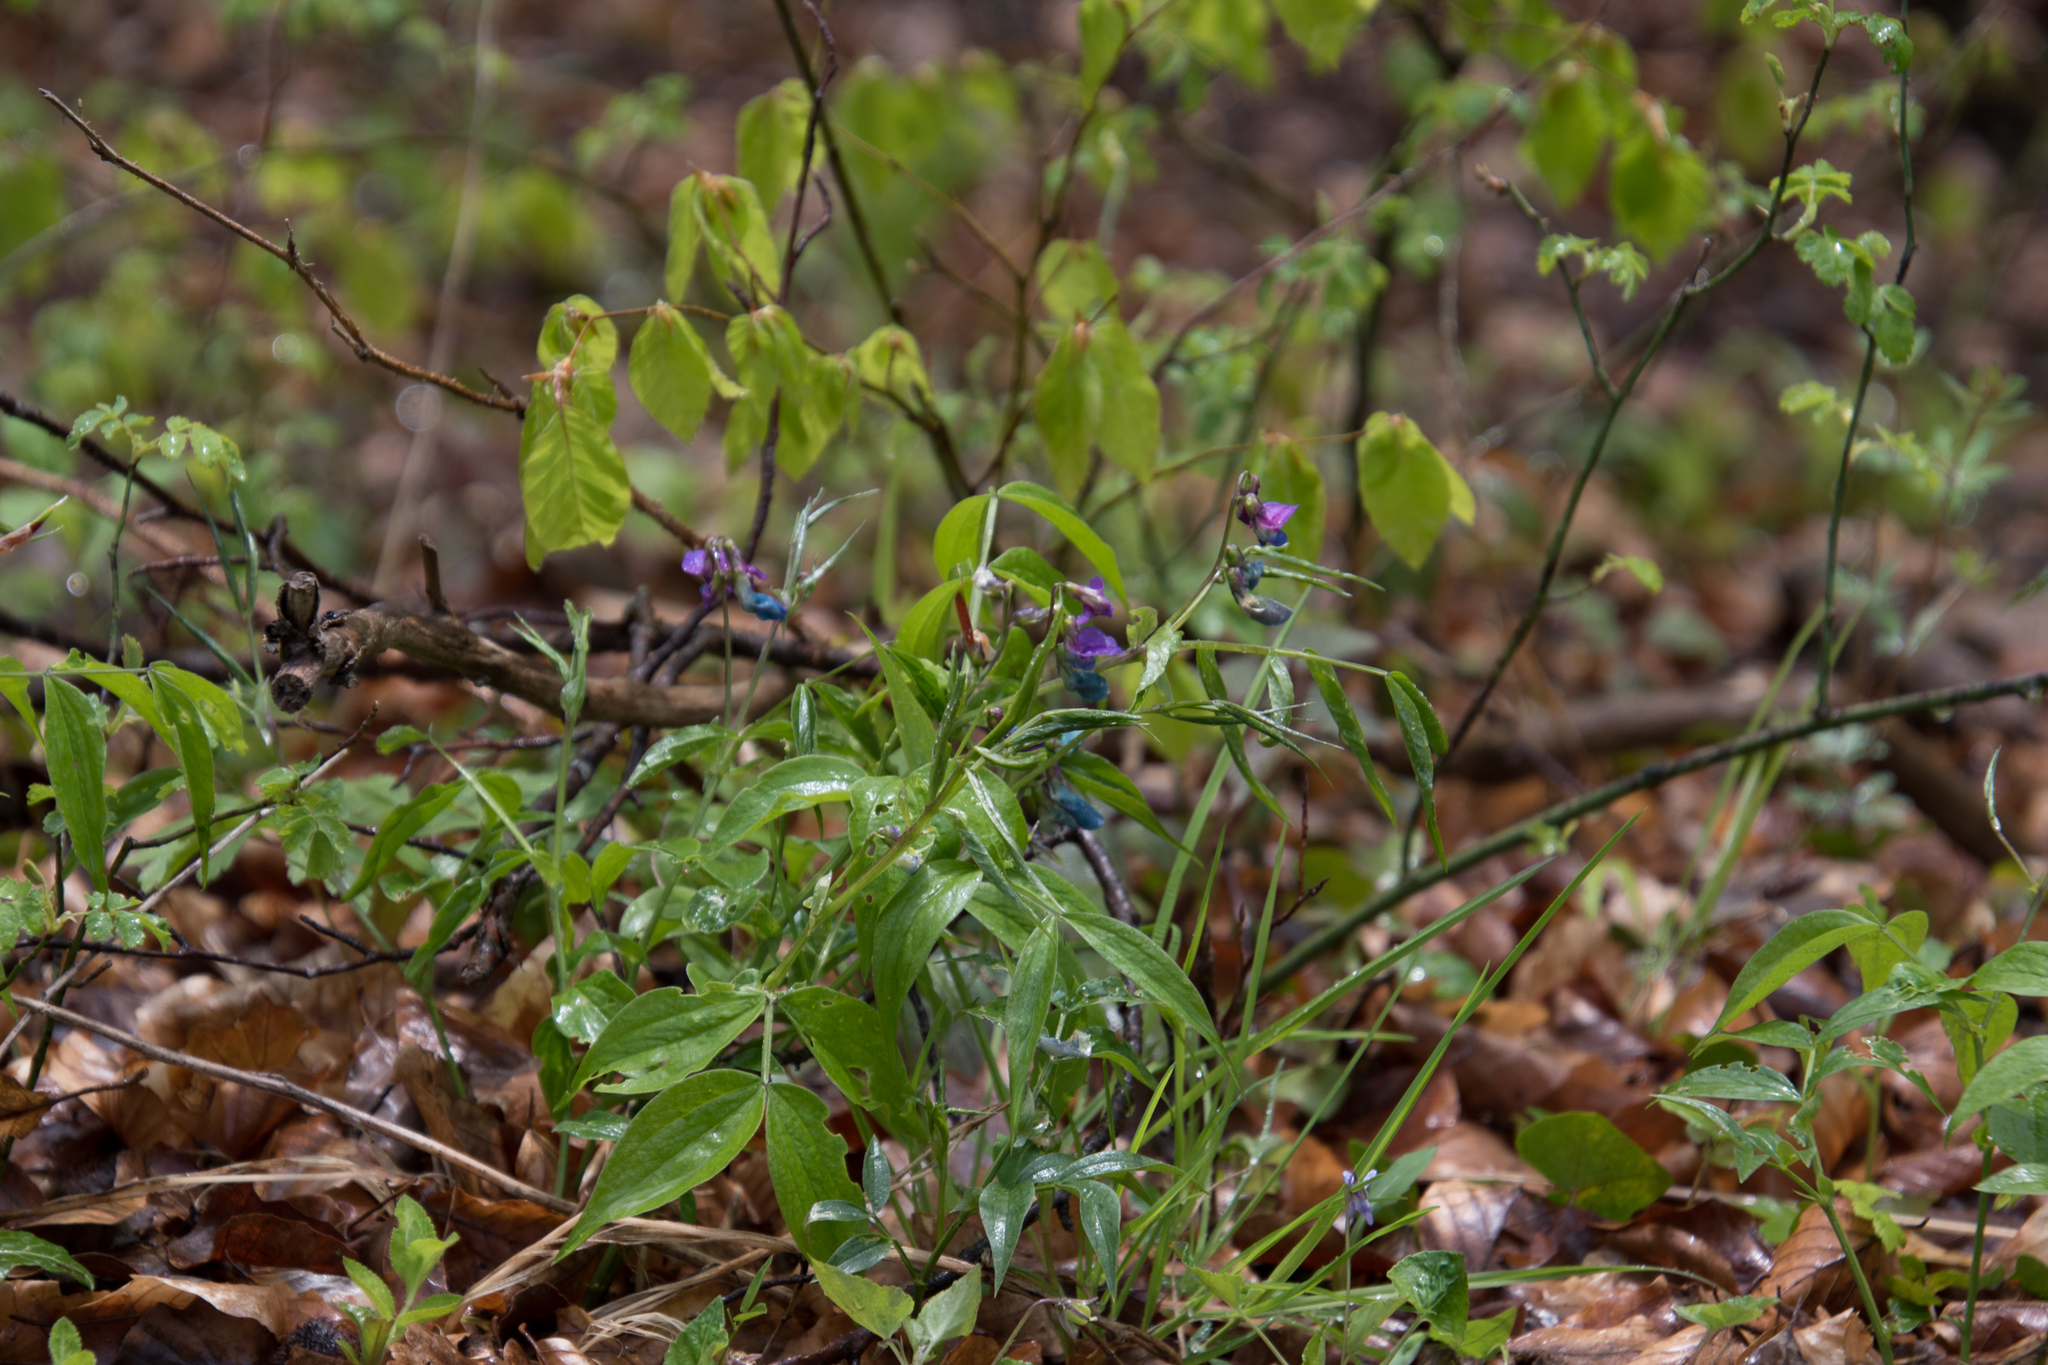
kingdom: Plantae
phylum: Tracheophyta
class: Magnoliopsida
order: Fabales
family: Fabaceae
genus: Lathyrus
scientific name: Lathyrus vernus
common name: Spring pea
